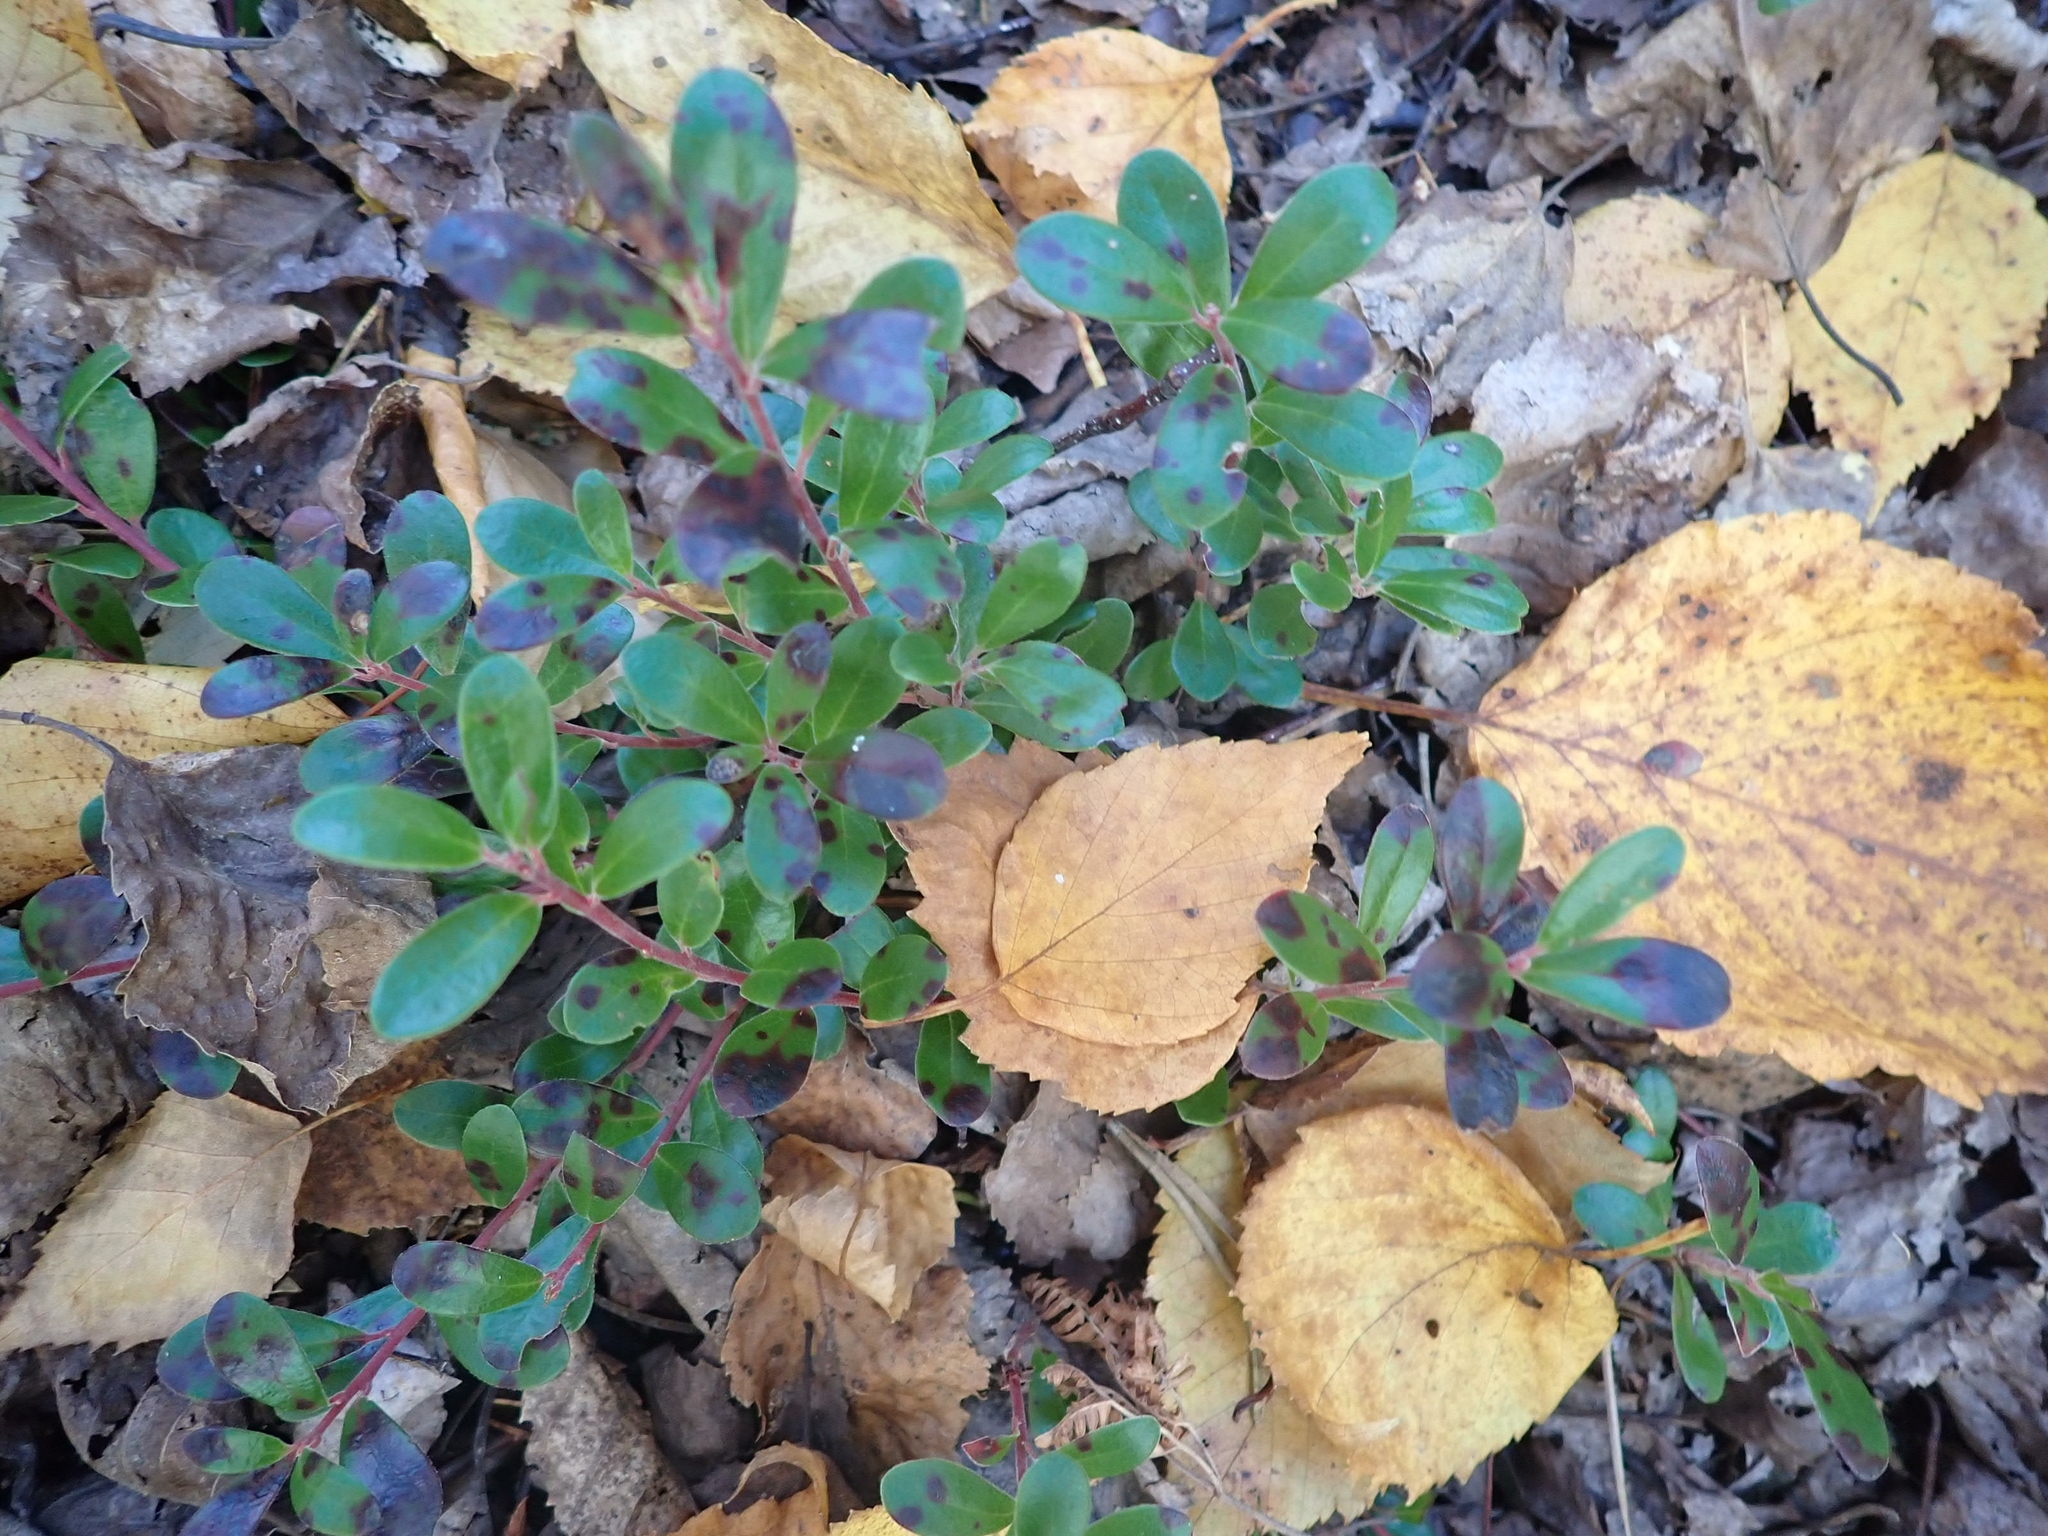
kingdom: Plantae
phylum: Tracheophyta
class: Magnoliopsida
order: Ericales
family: Ericaceae
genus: Arctostaphylos
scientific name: Arctostaphylos uva-ursi
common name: Bearberry
